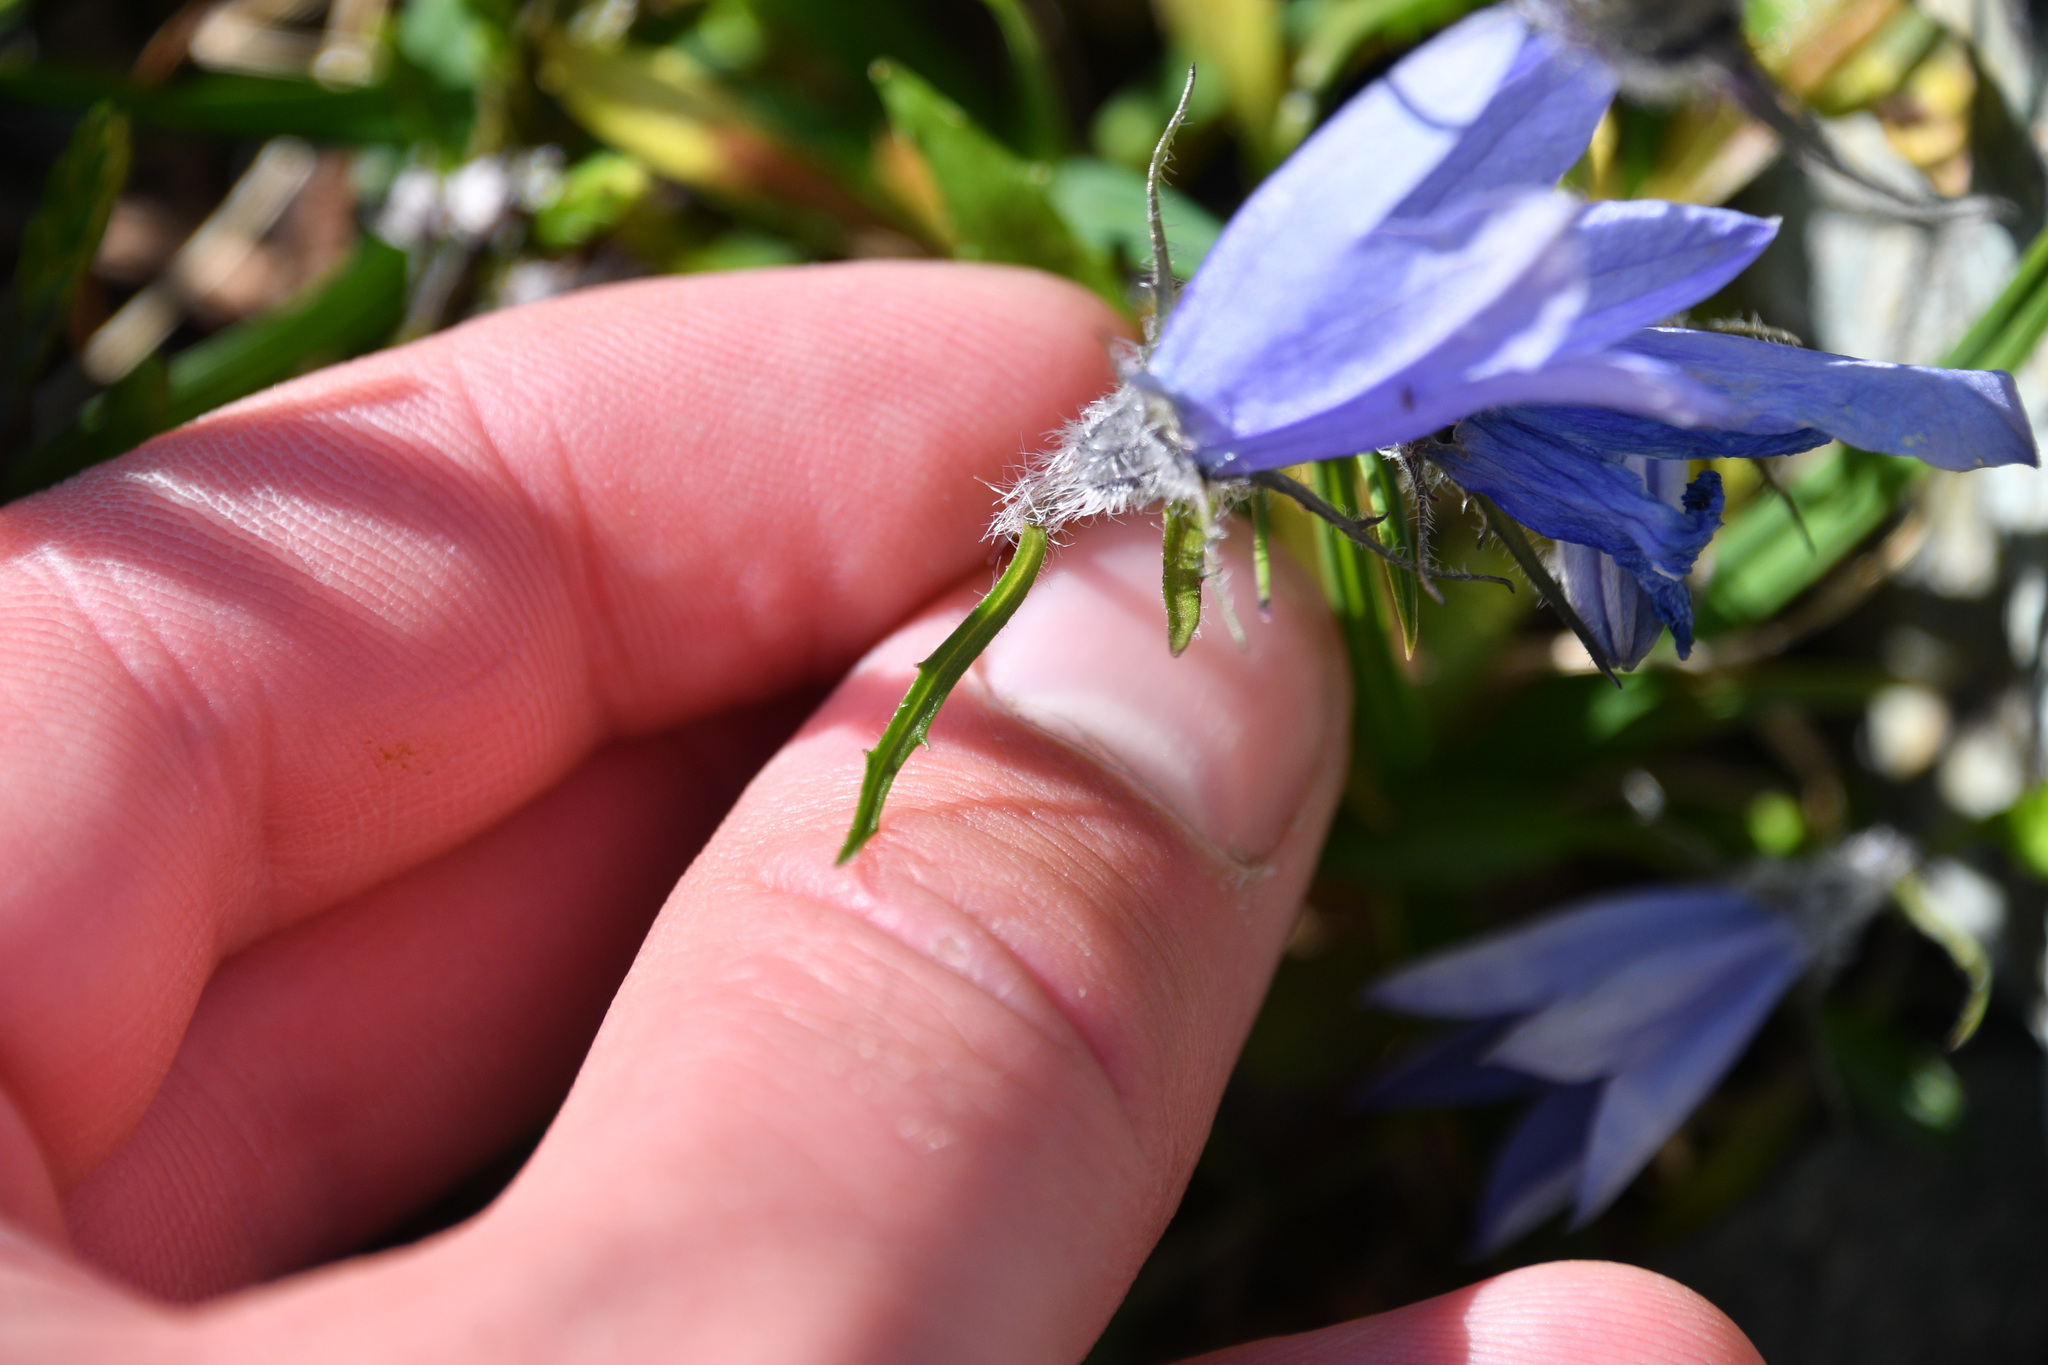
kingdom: Plantae
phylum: Tracheophyta
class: Magnoliopsida
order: Asterales
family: Campanulaceae
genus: Campanula
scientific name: Campanula lasiocarpa
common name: Mountain harebell
